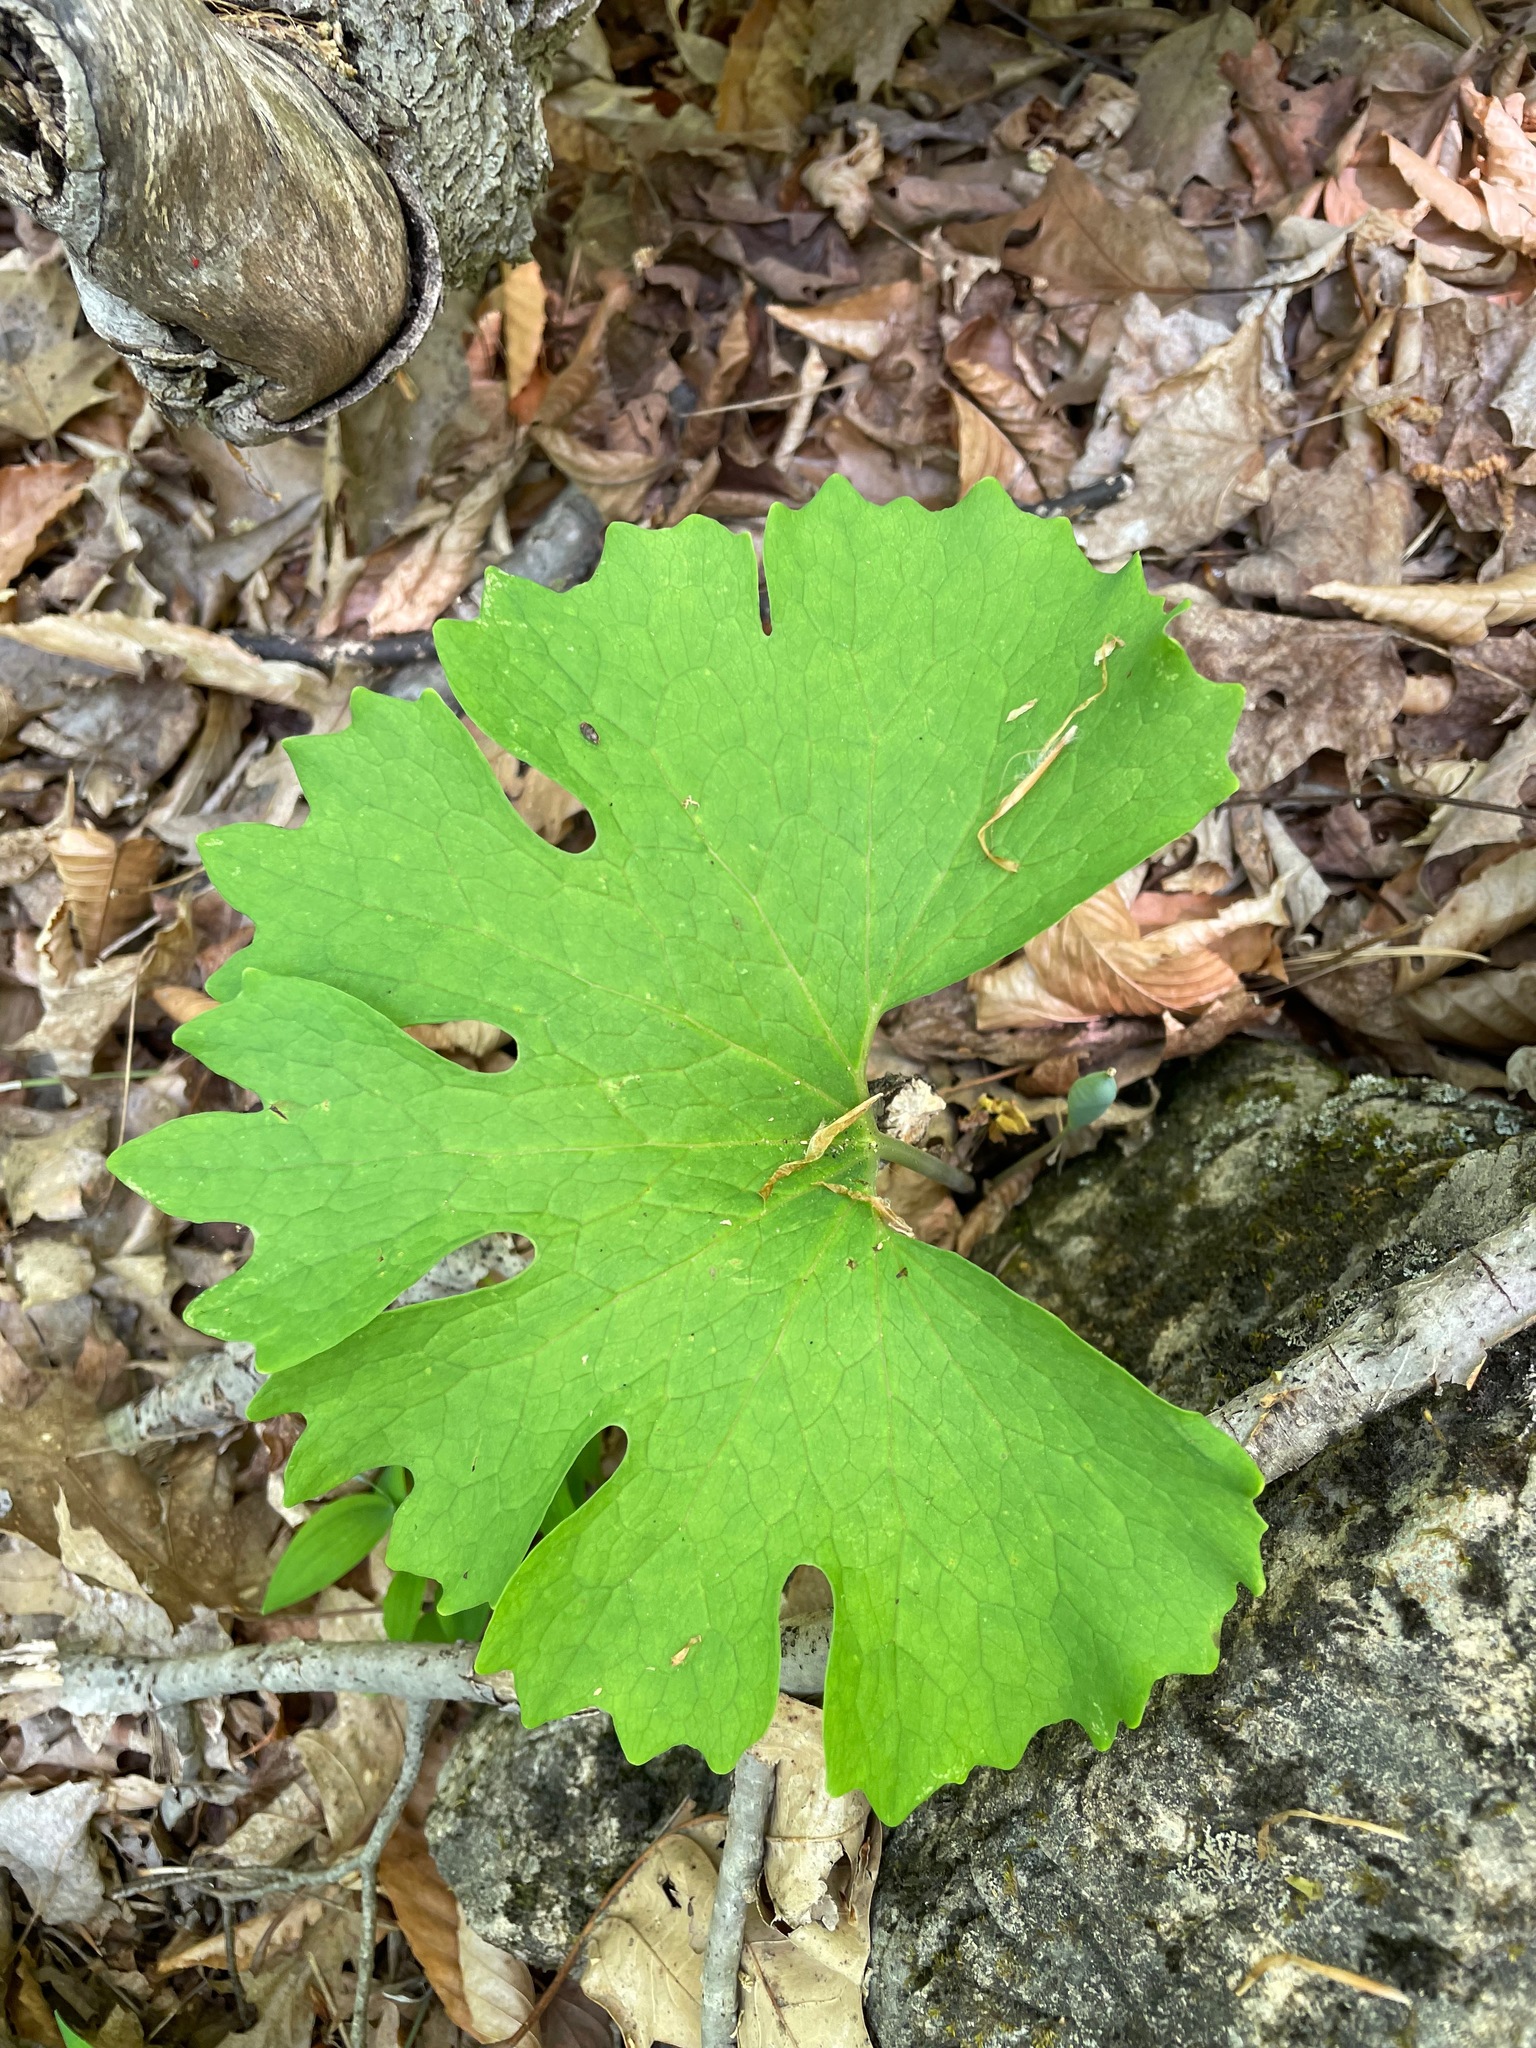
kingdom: Plantae
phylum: Tracheophyta
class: Magnoliopsida
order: Ranunculales
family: Papaveraceae
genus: Sanguinaria
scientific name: Sanguinaria canadensis
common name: Bloodroot
